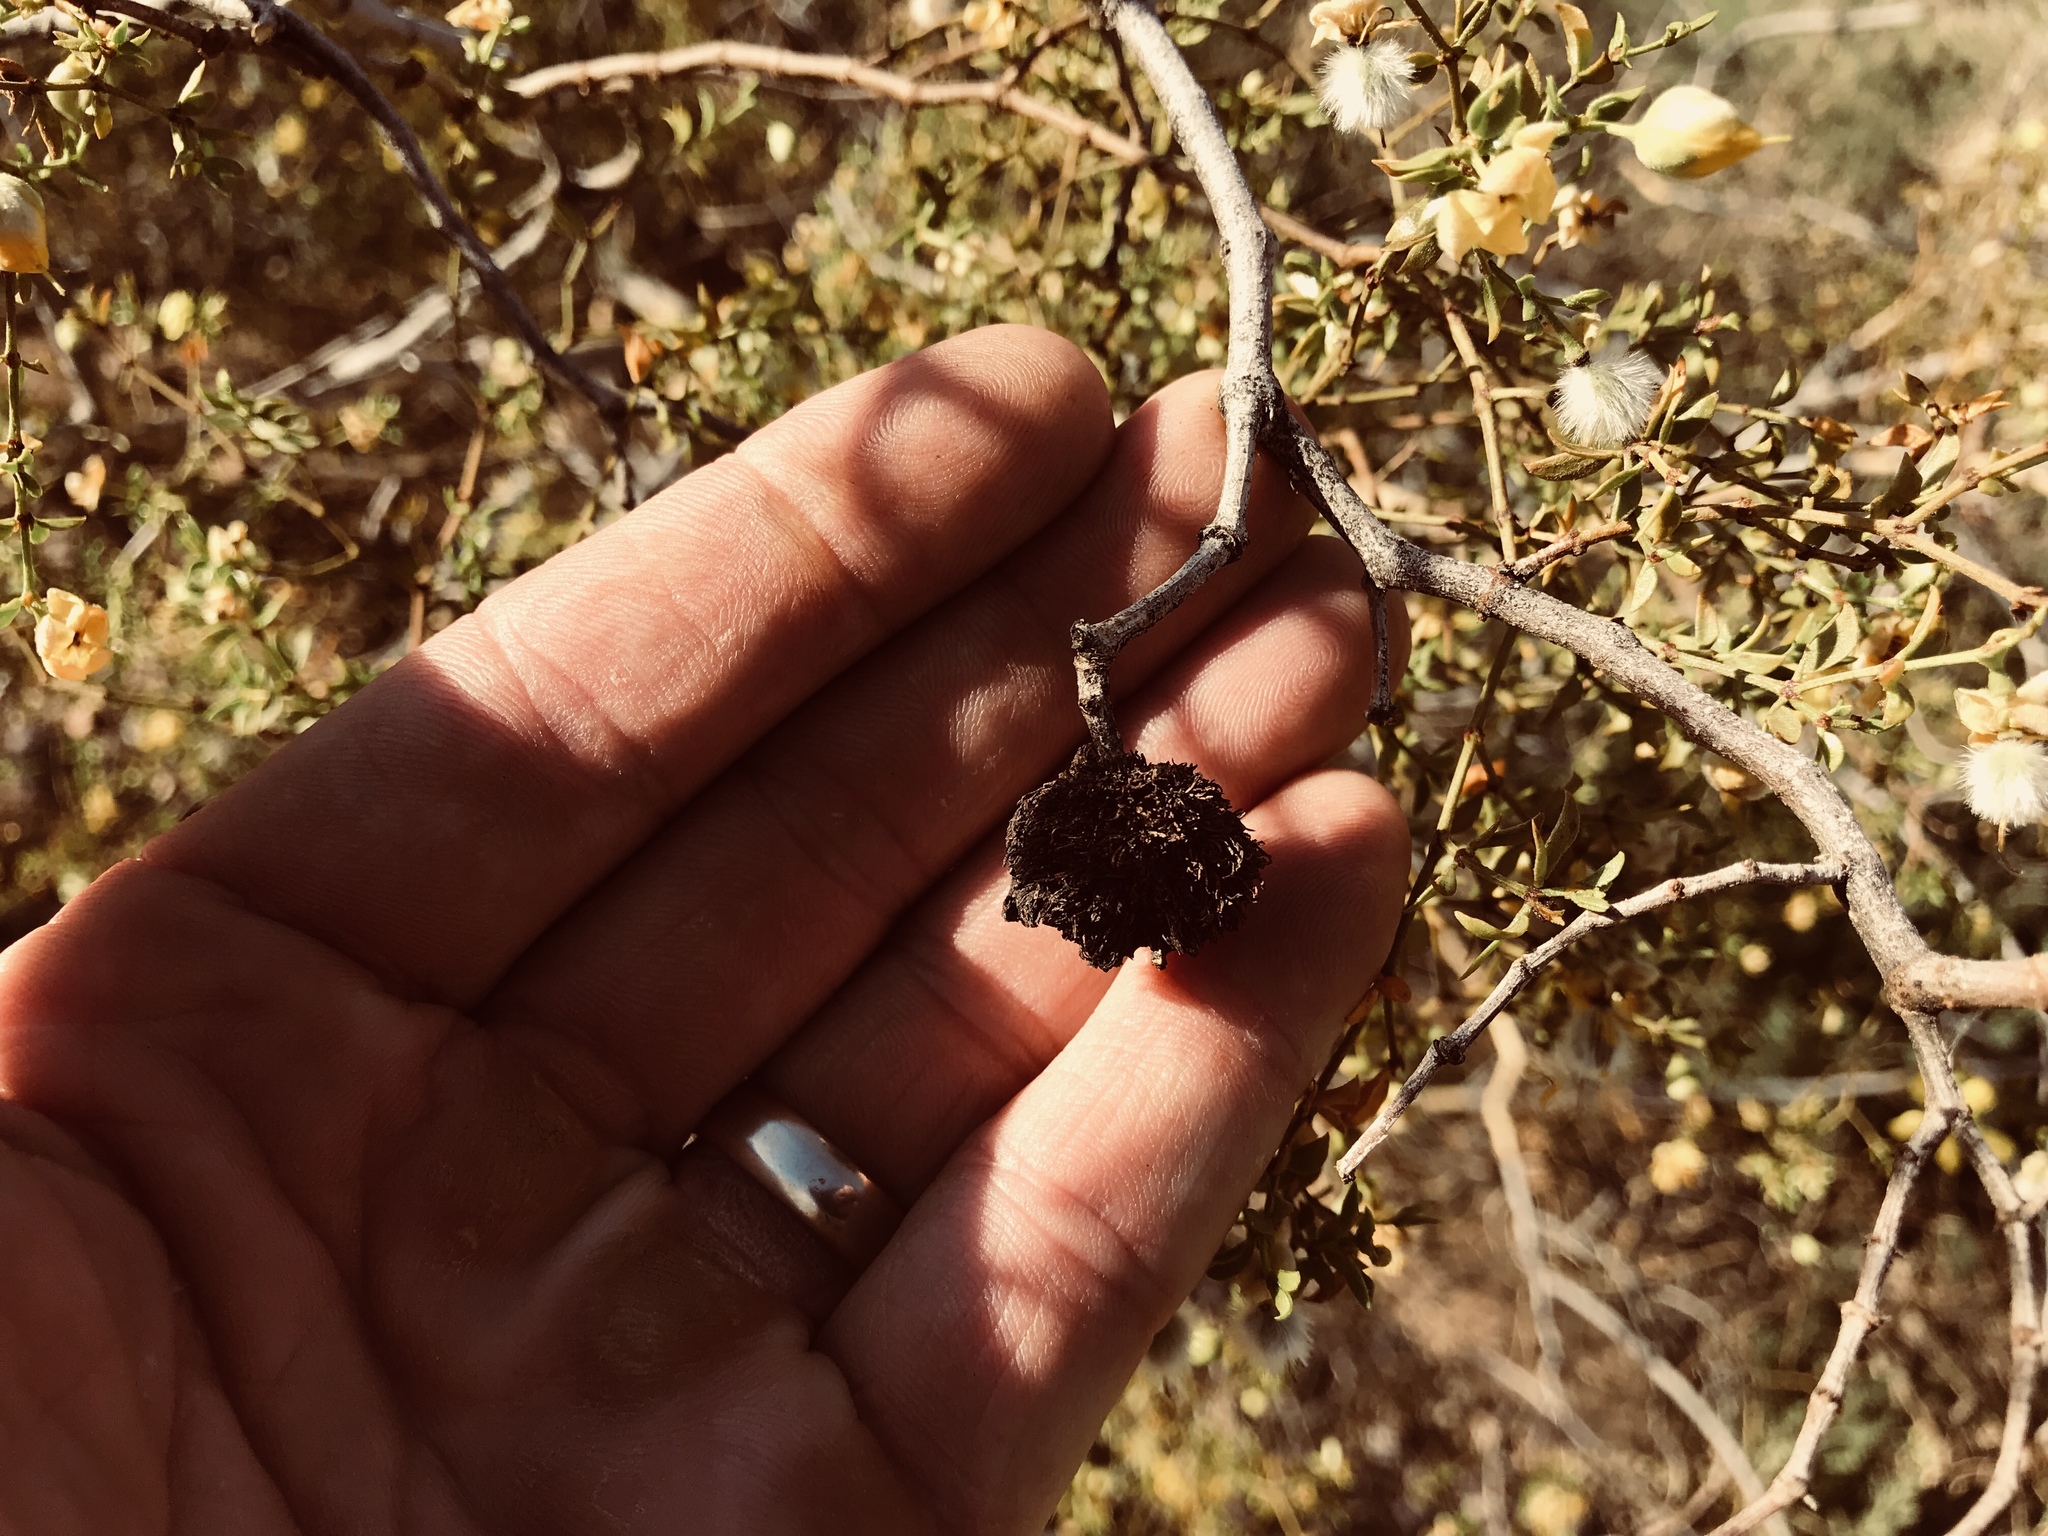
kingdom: Animalia
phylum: Arthropoda
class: Insecta
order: Diptera
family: Cecidomyiidae
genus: Asphondylia
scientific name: Asphondylia auripila
